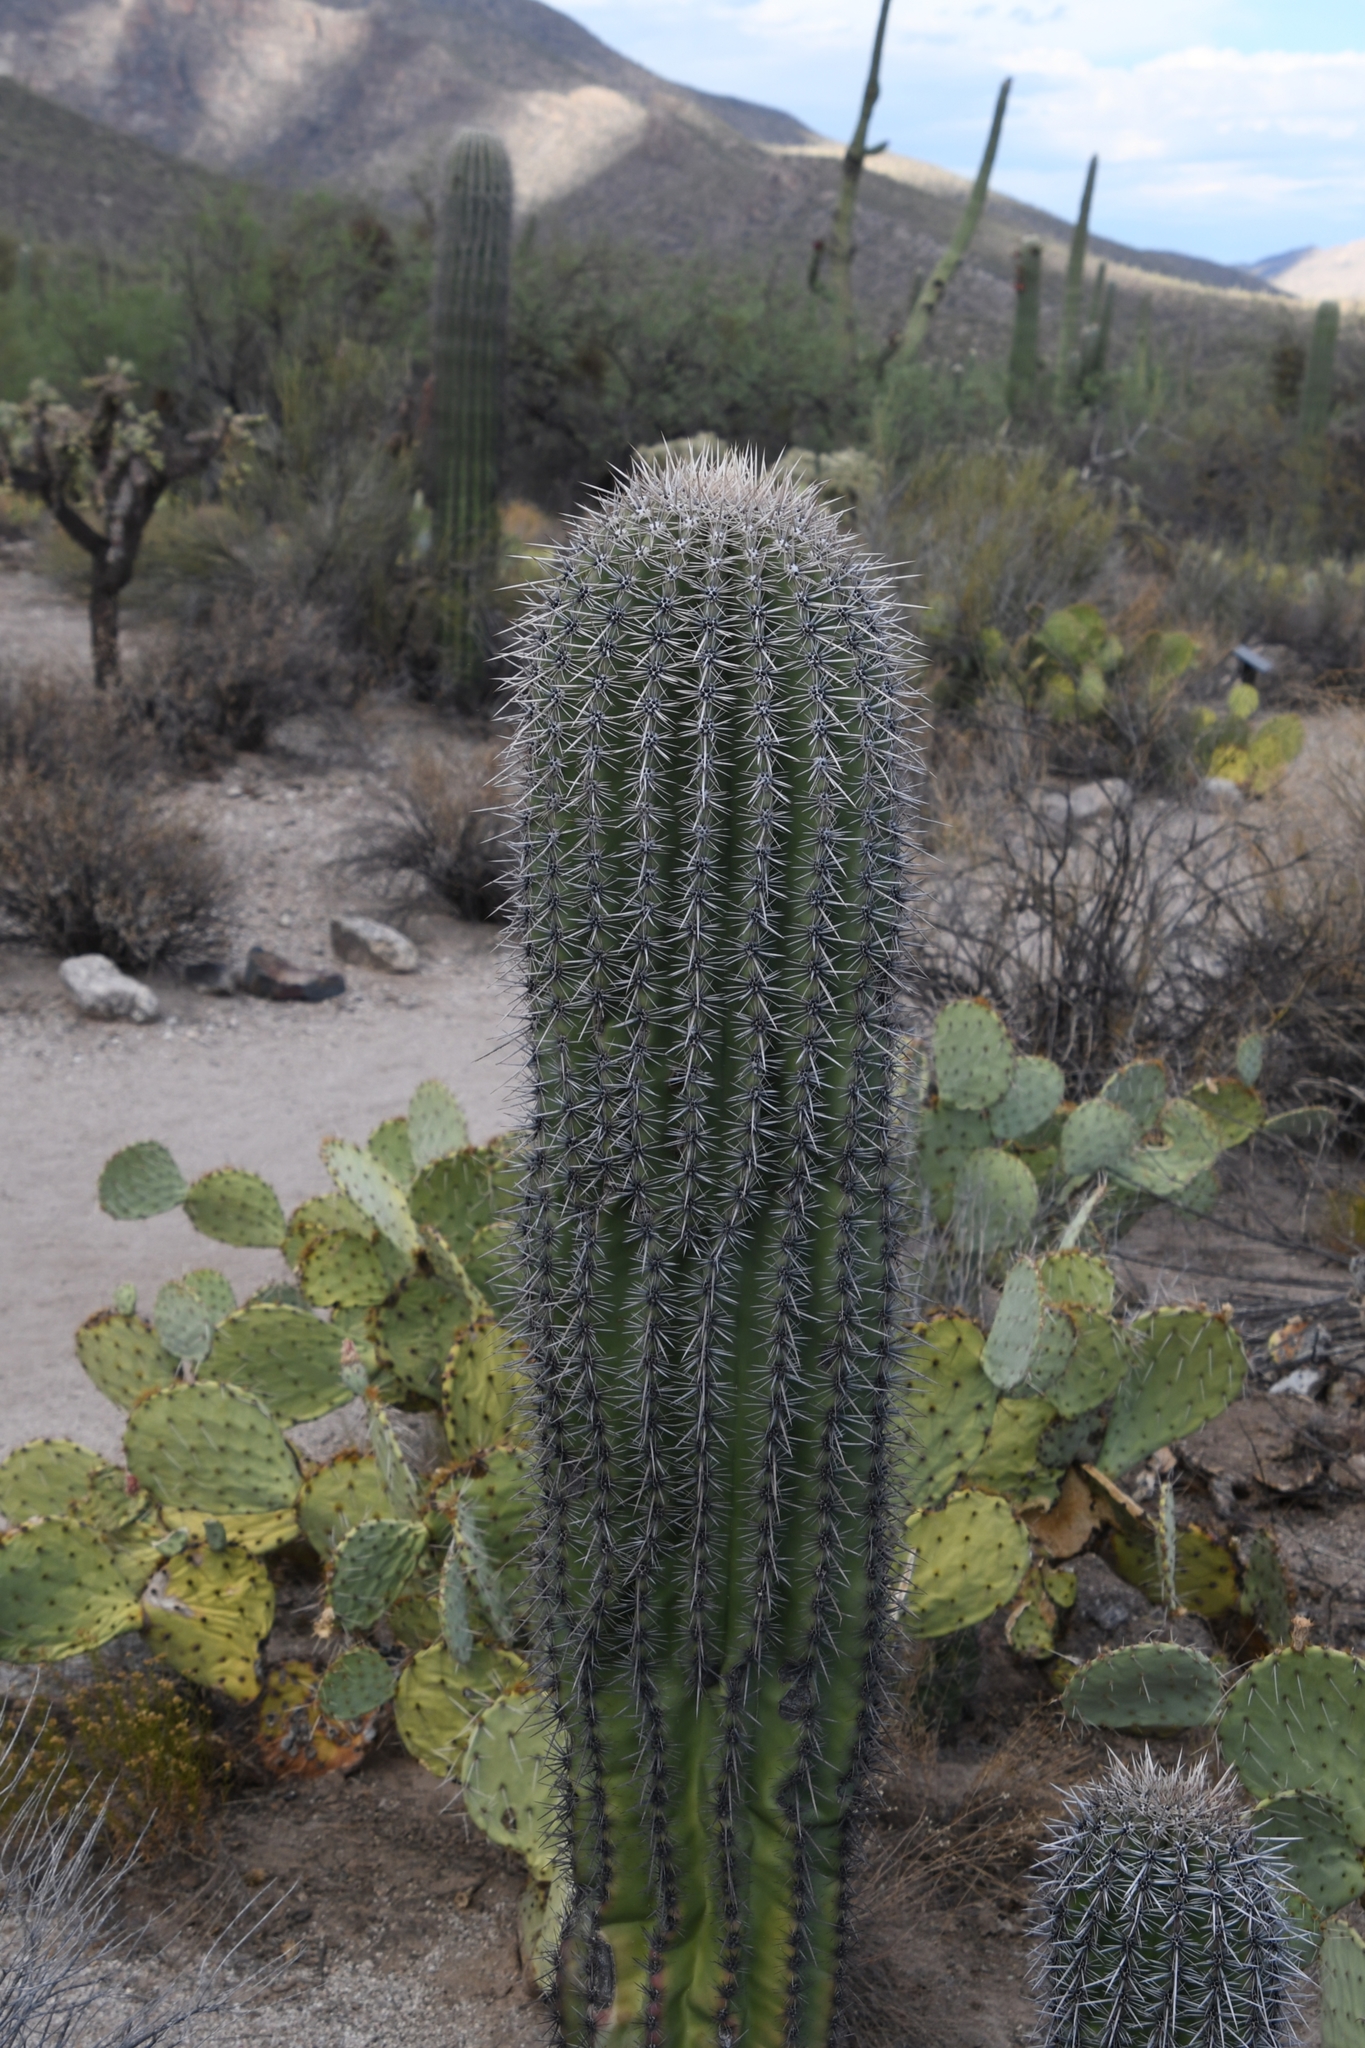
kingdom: Plantae
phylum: Tracheophyta
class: Magnoliopsida
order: Caryophyllales
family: Cactaceae
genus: Carnegiea
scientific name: Carnegiea gigantea
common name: Saguaro
